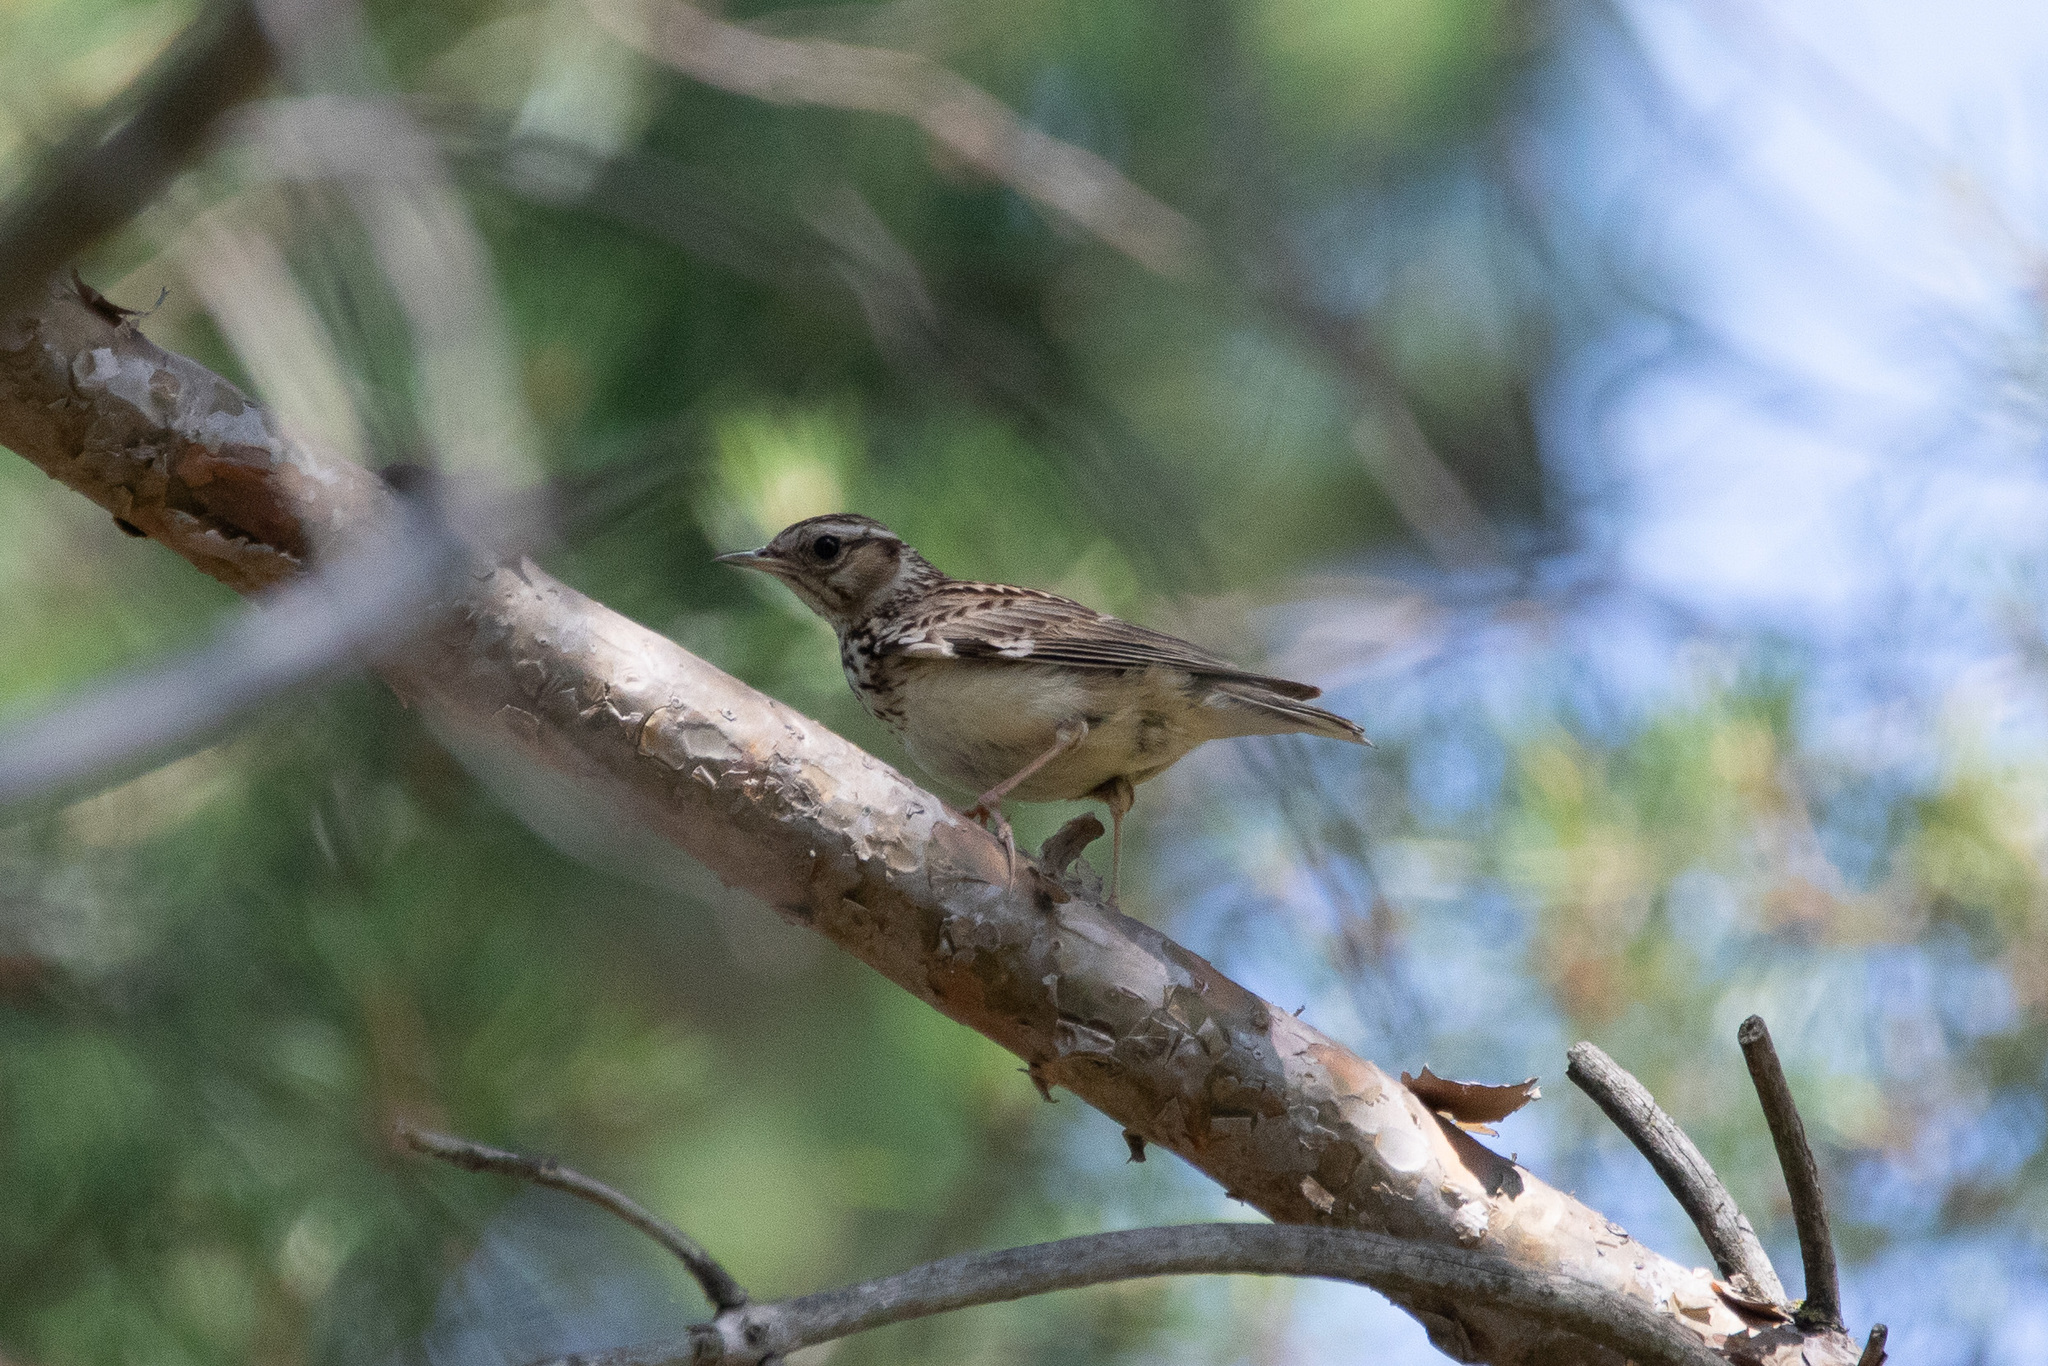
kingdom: Animalia
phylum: Chordata
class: Aves
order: Passeriformes
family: Alaudidae
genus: Lullula
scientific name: Lullula arborea
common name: Woodlark
